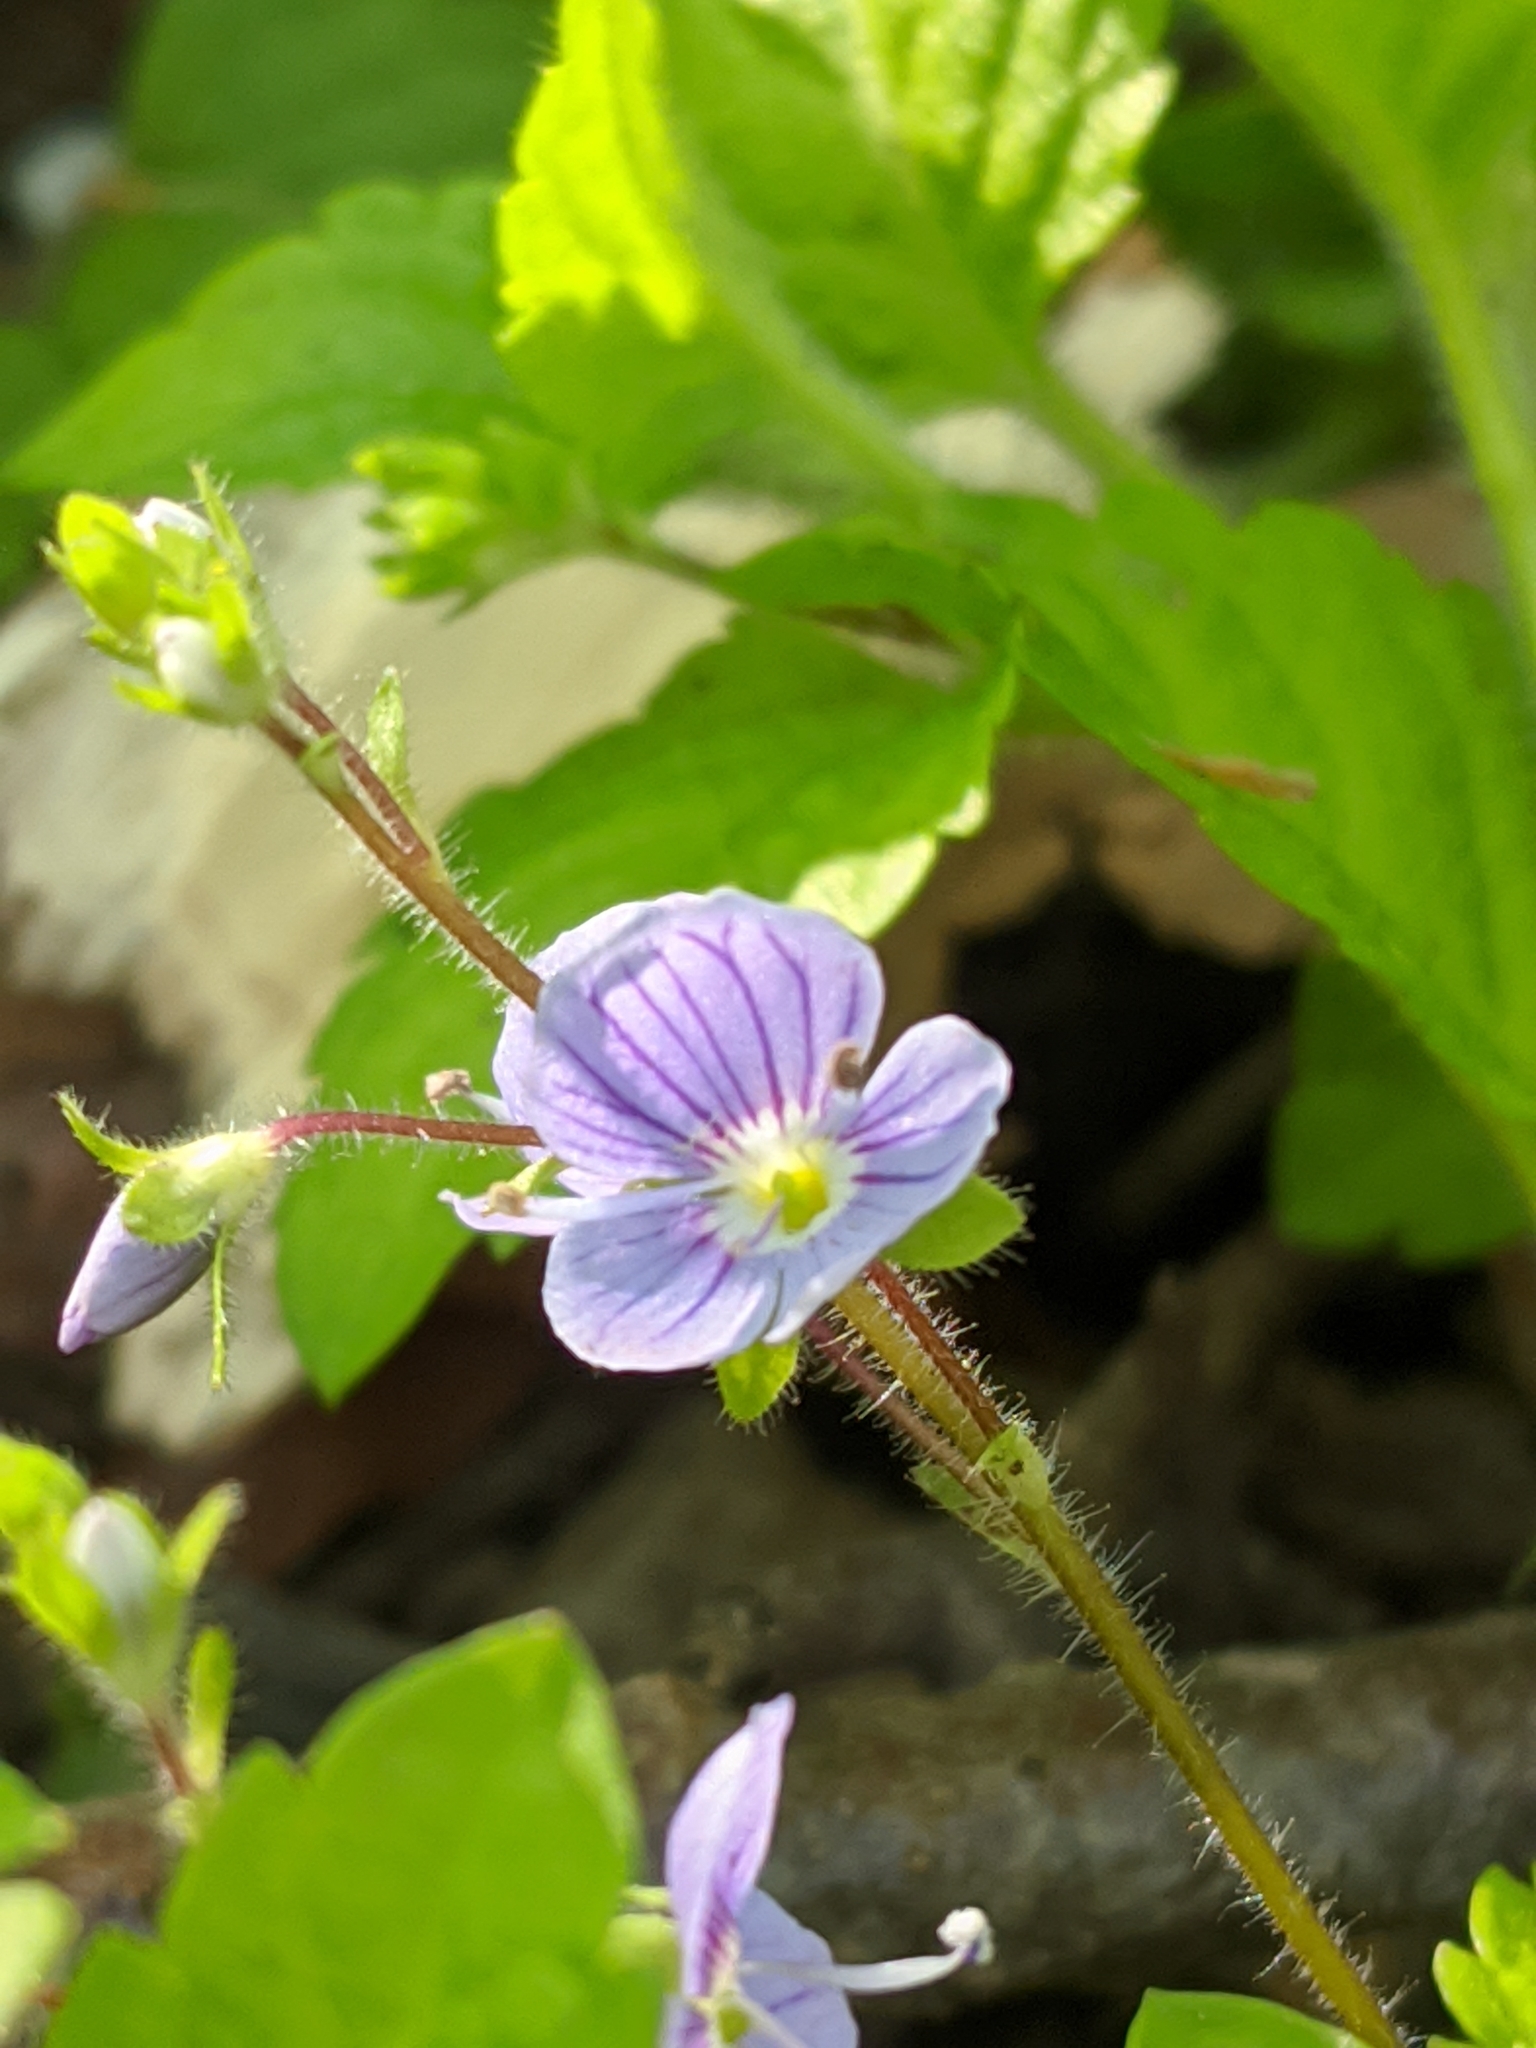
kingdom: Plantae
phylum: Tracheophyta
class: Magnoliopsida
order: Lamiales
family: Plantaginaceae
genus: Veronica
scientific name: Veronica montana
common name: Wood speedwell
